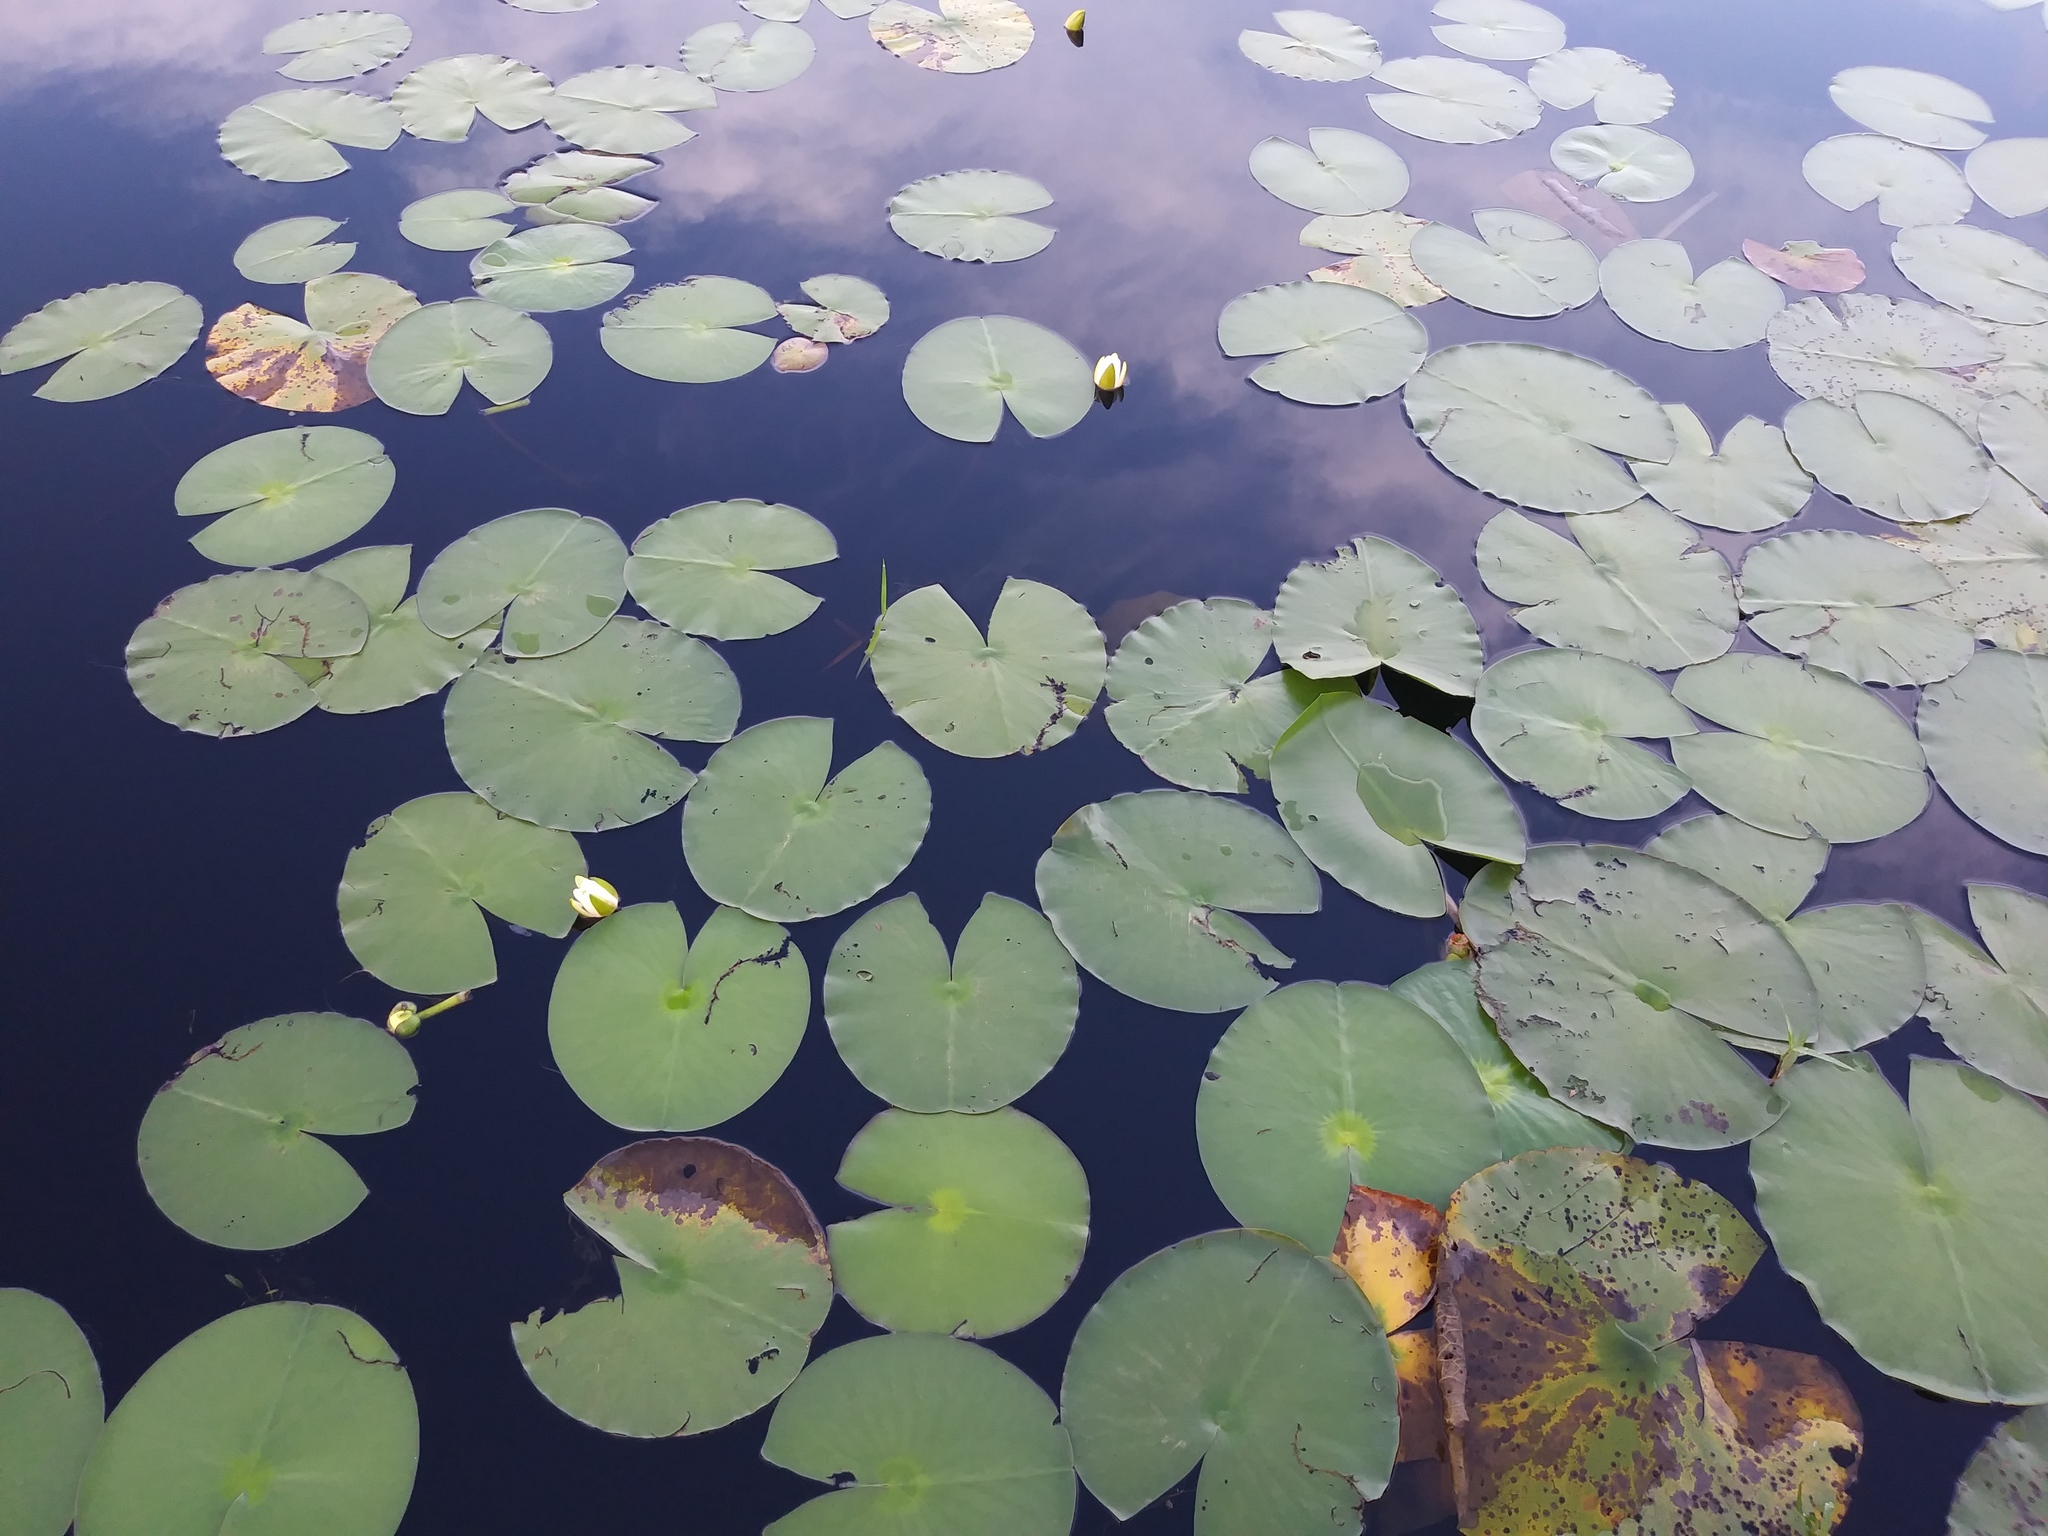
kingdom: Plantae
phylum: Tracheophyta
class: Magnoliopsida
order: Nymphaeales
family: Nymphaeaceae
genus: Nymphaea
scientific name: Nymphaea odorata
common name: Fragrant water-lily
